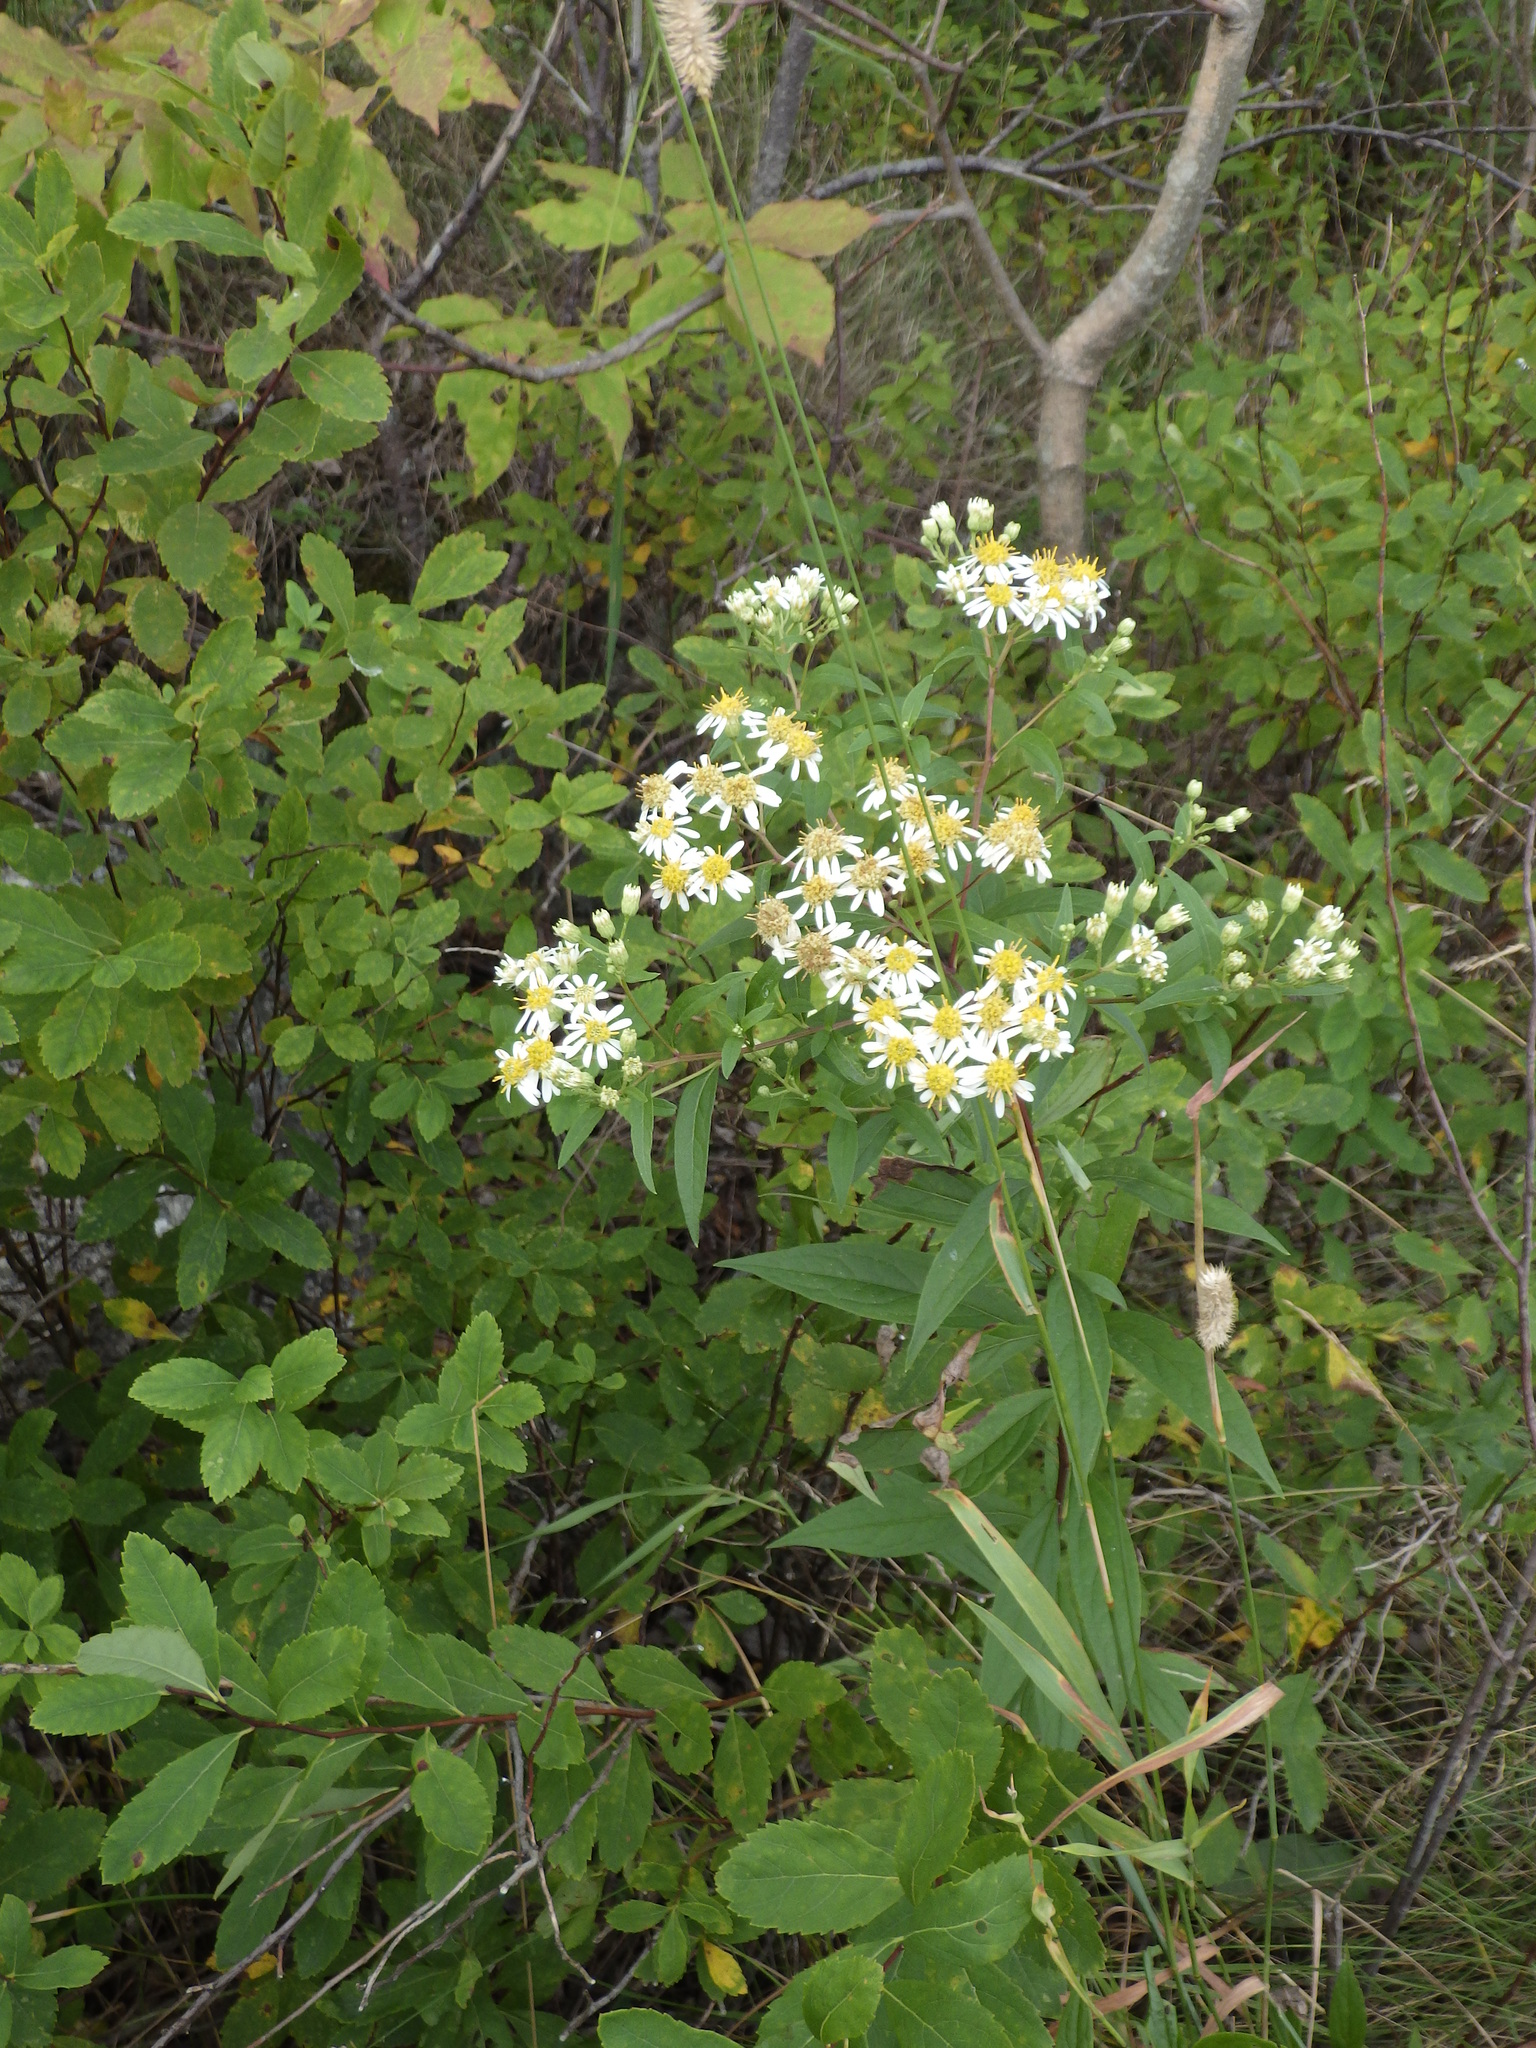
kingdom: Plantae
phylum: Tracheophyta
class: Magnoliopsida
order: Asterales
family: Asteraceae
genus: Doellingeria
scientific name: Doellingeria umbellata
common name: Flat-top white aster
